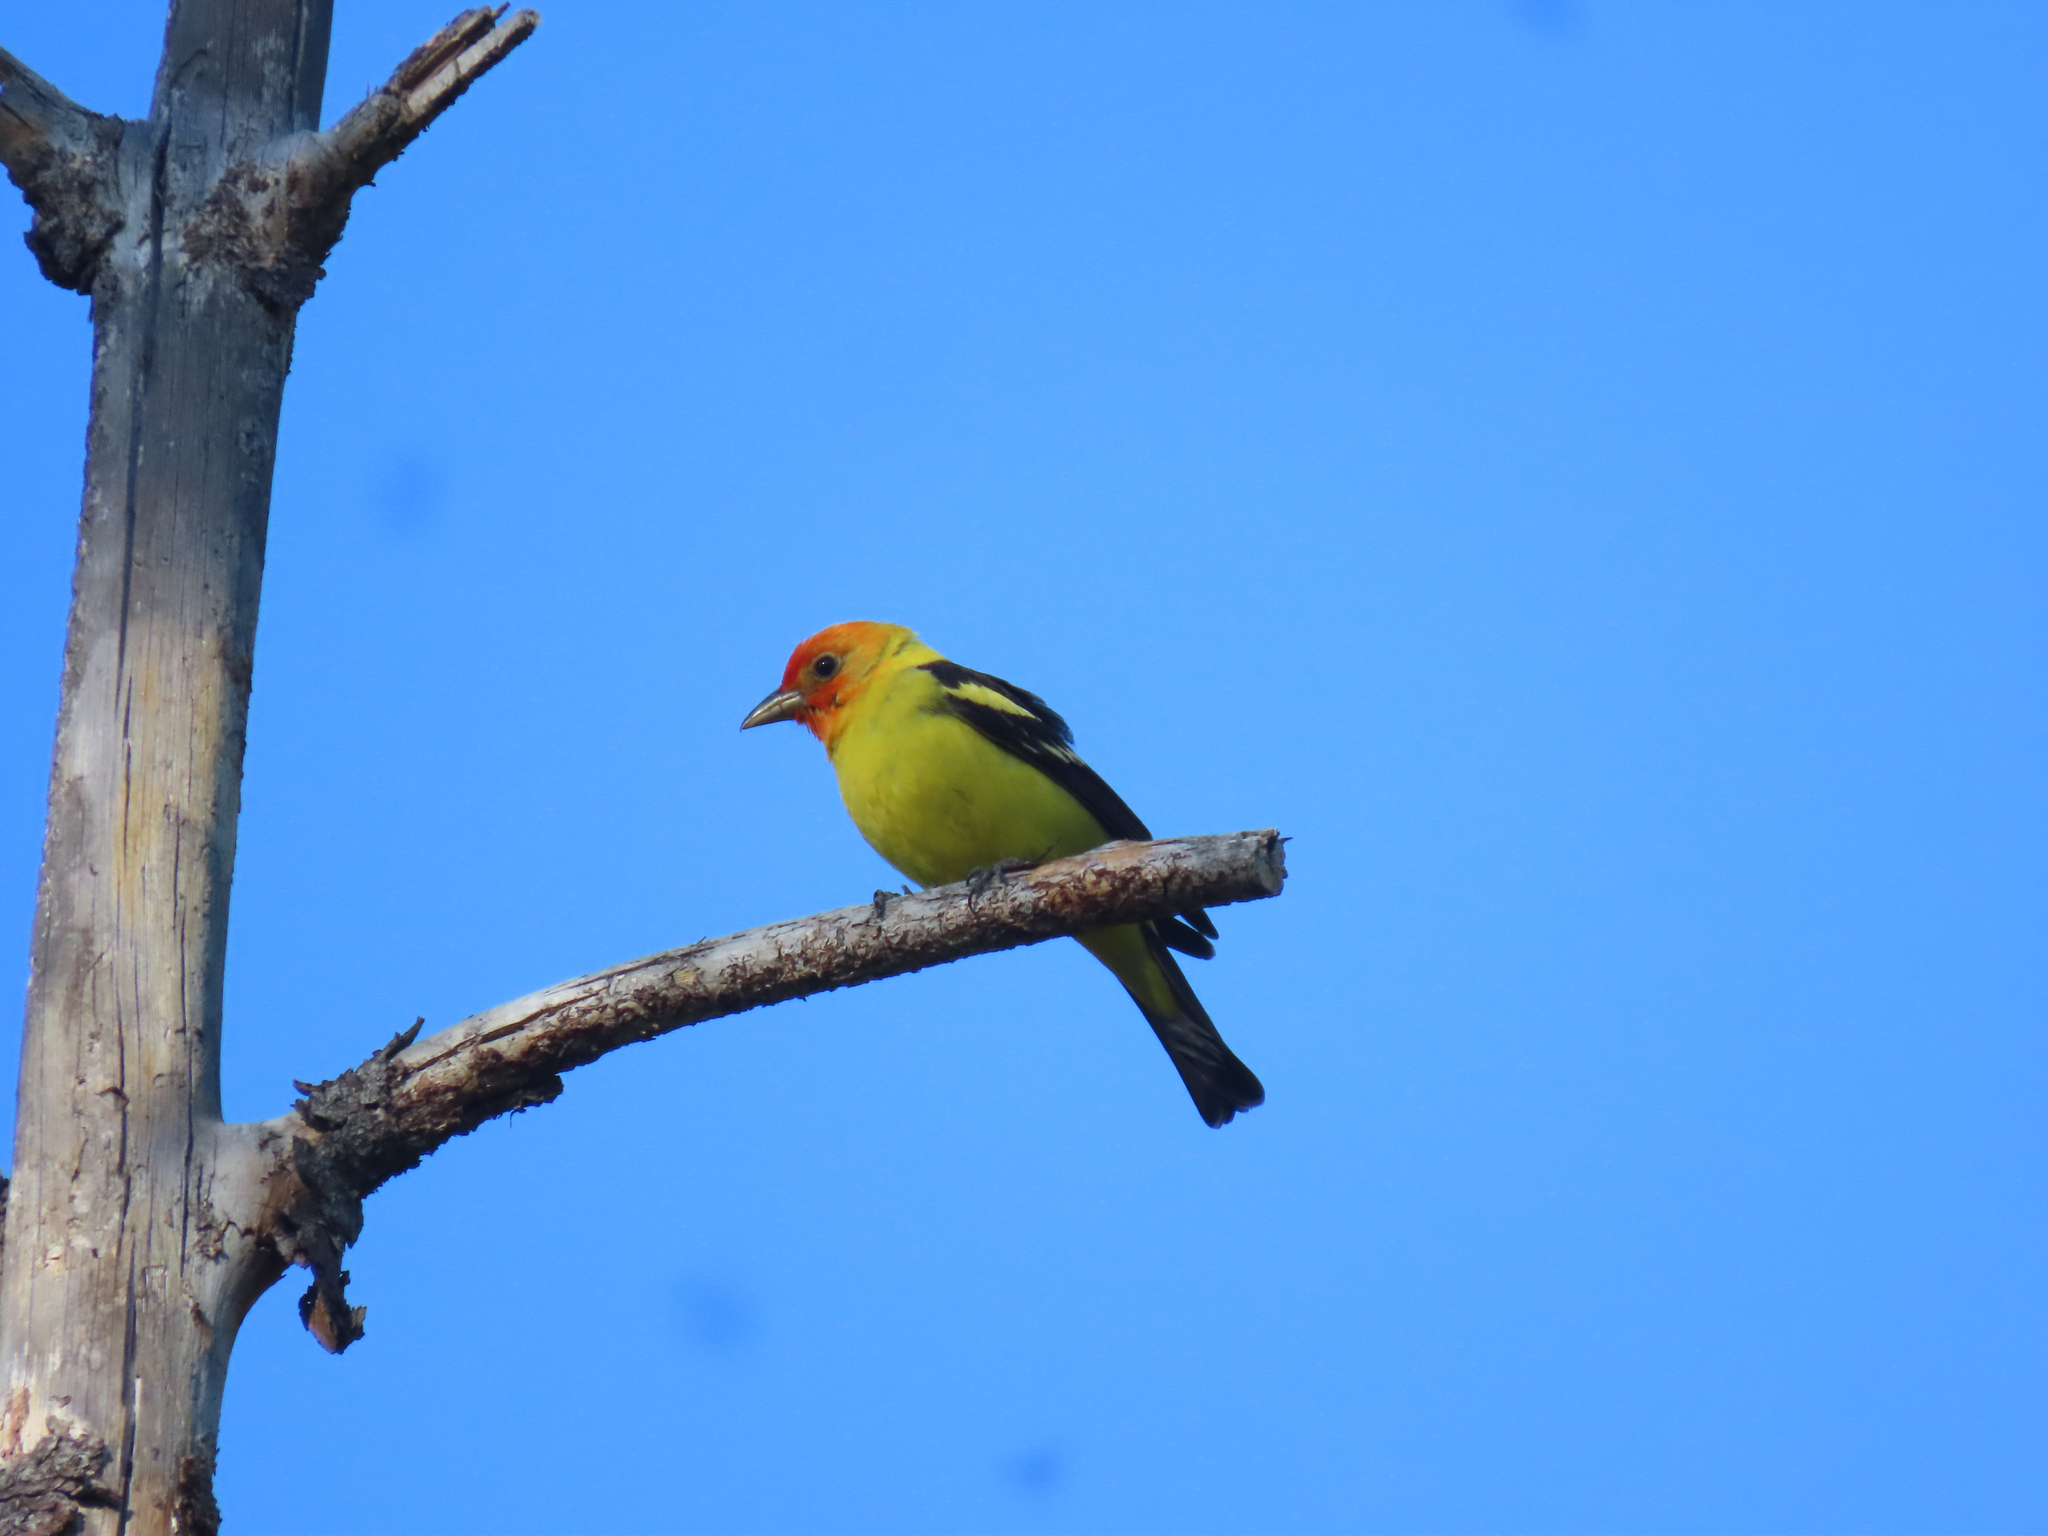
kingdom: Animalia
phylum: Chordata
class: Aves
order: Passeriformes
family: Cardinalidae
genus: Piranga
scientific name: Piranga ludoviciana
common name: Western tanager
